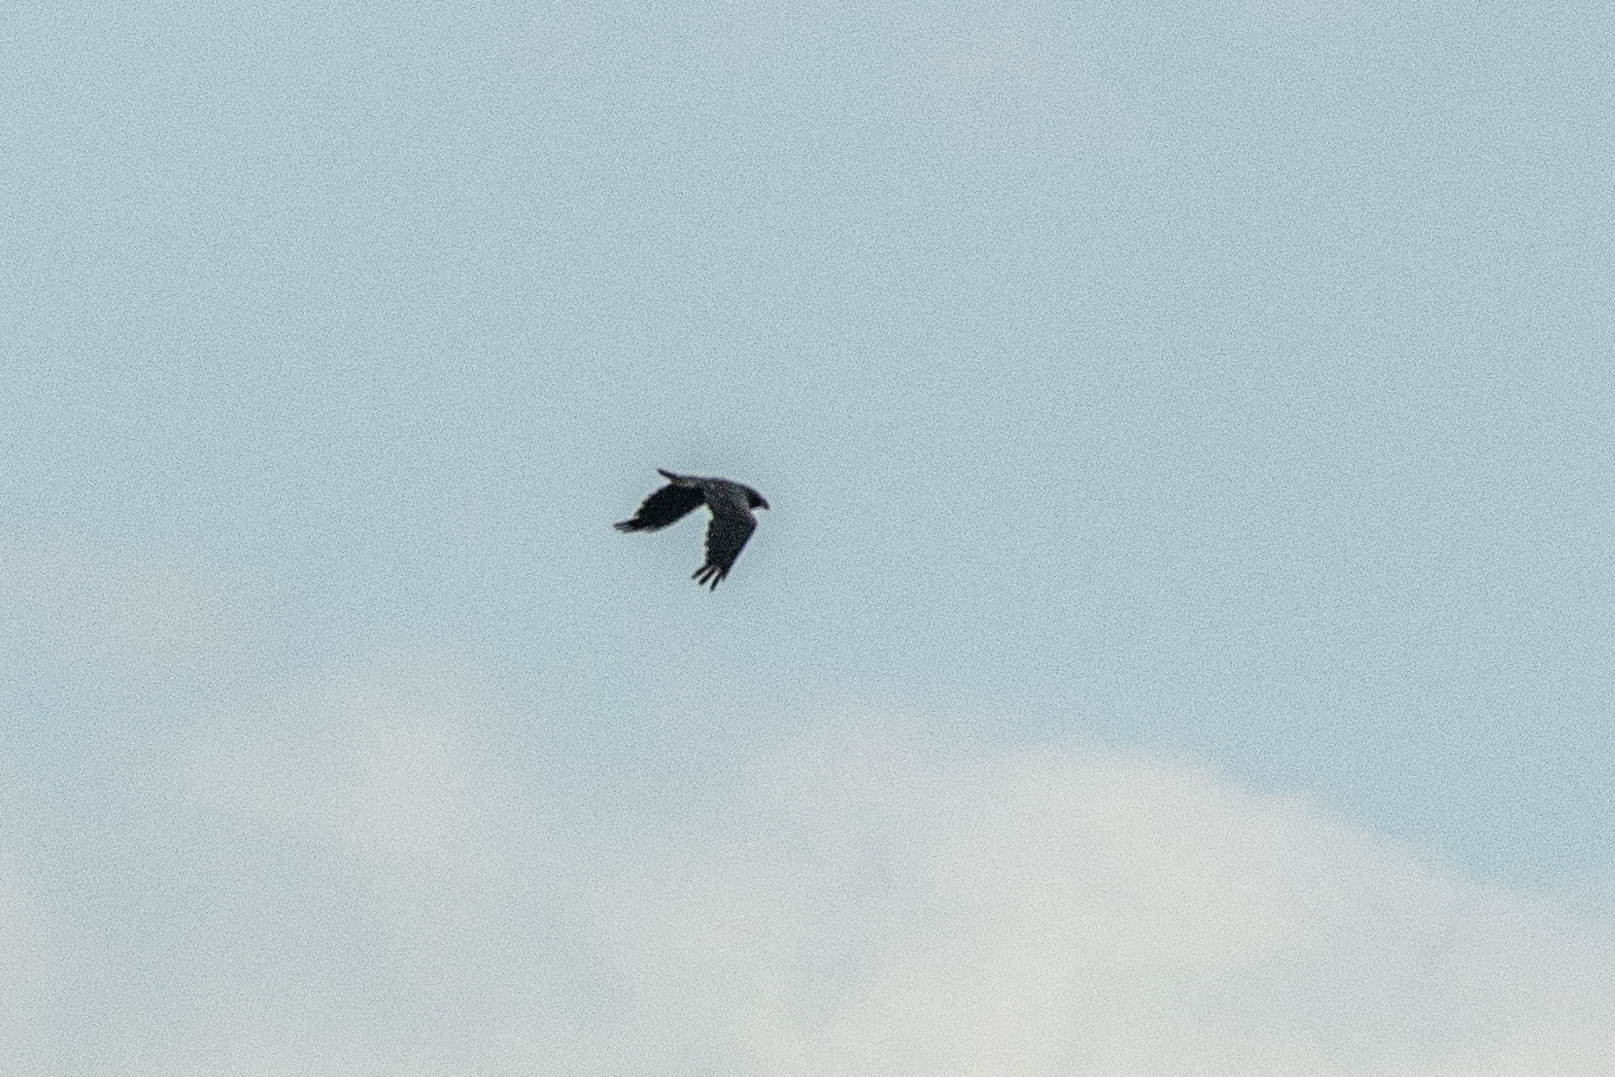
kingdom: Animalia
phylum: Chordata
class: Aves
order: Passeriformes
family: Corvidae
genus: Corvus
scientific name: Corvus corax
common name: Common raven
